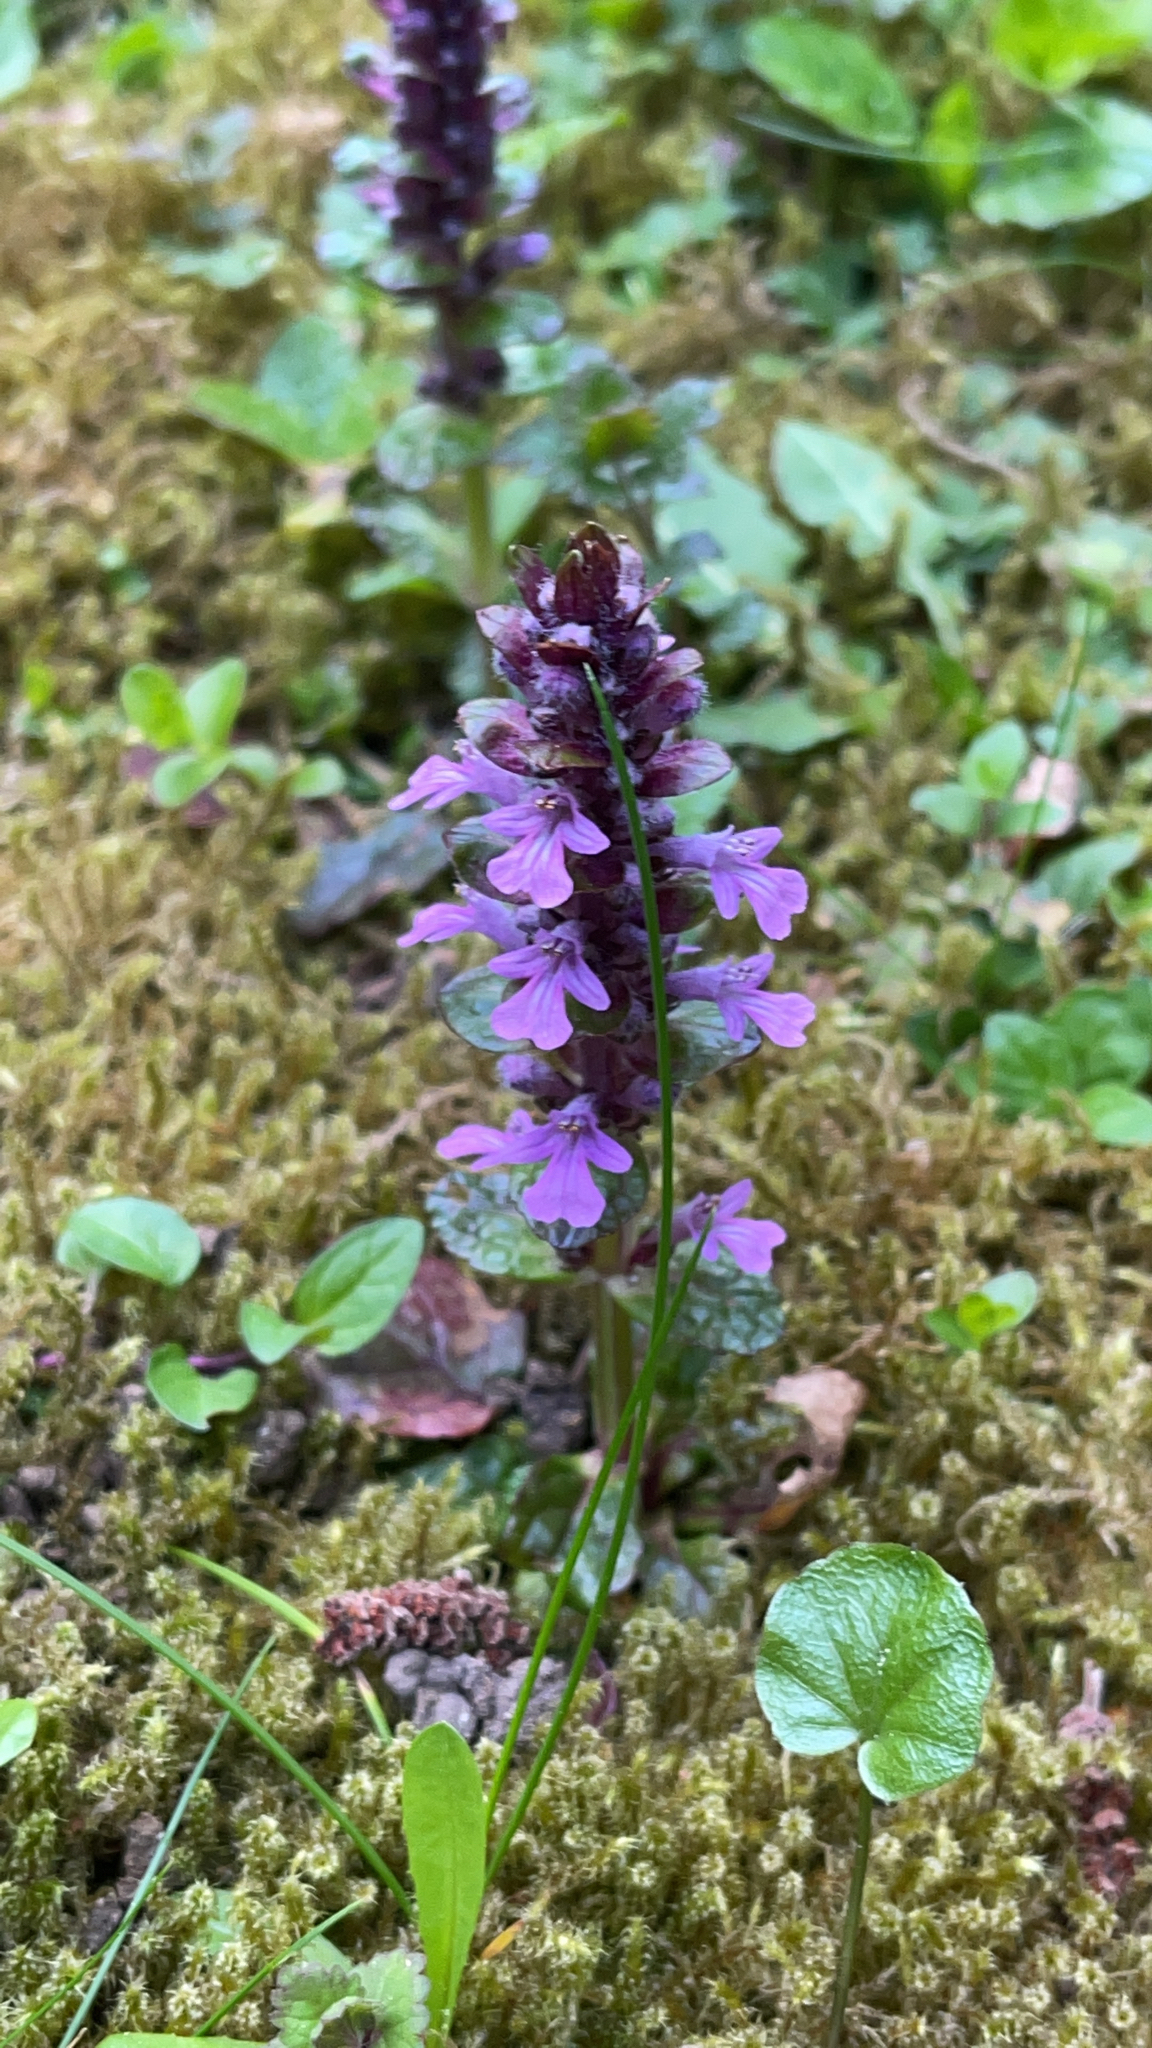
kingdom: Plantae
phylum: Tracheophyta
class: Magnoliopsida
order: Lamiales
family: Lamiaceae
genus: Ajuga
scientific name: Ajuga reptans
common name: Bugle
